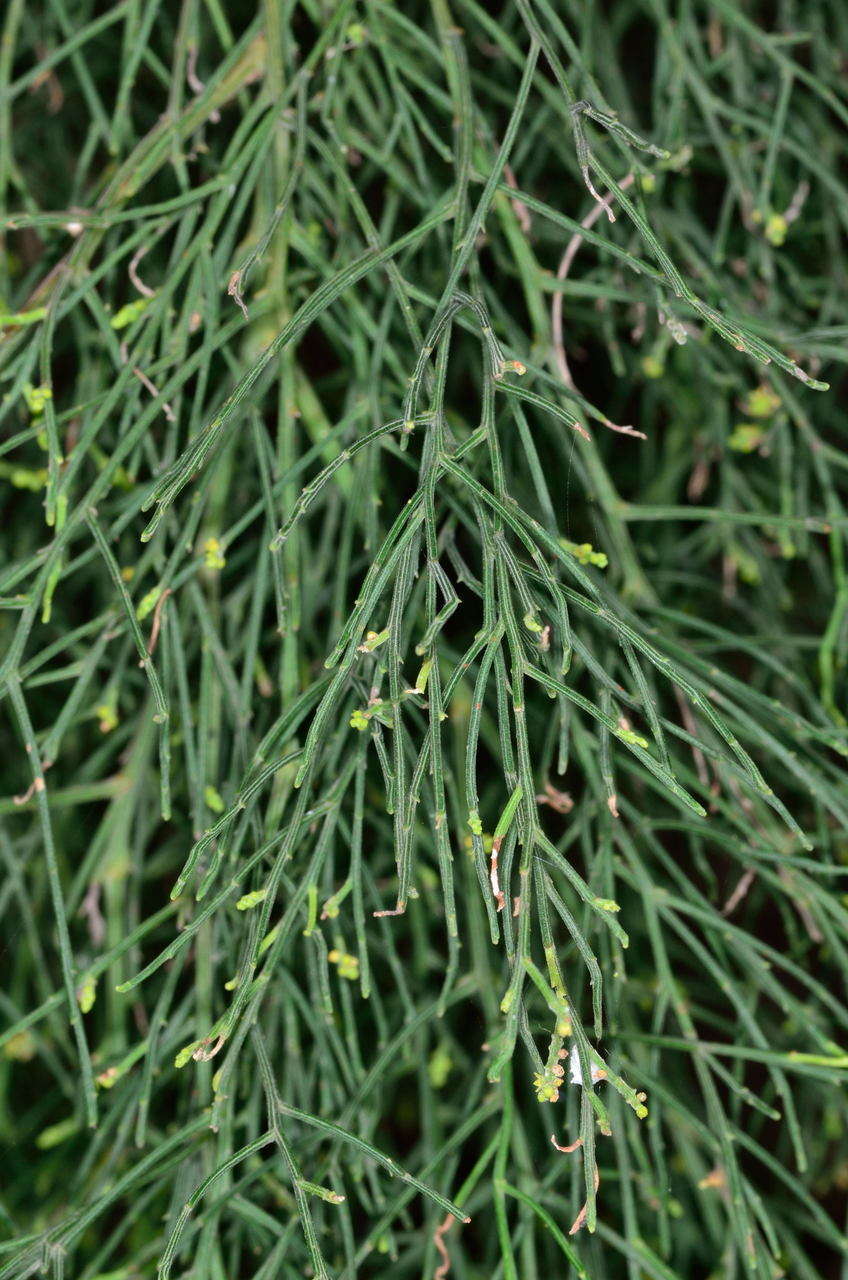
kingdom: Plantae
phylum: Tracheophyta
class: Magnoliopsida
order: Santalales
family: Santalaceae
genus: Exocarpos
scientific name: Exocarpos cupressiformis
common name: Cherry ballart
